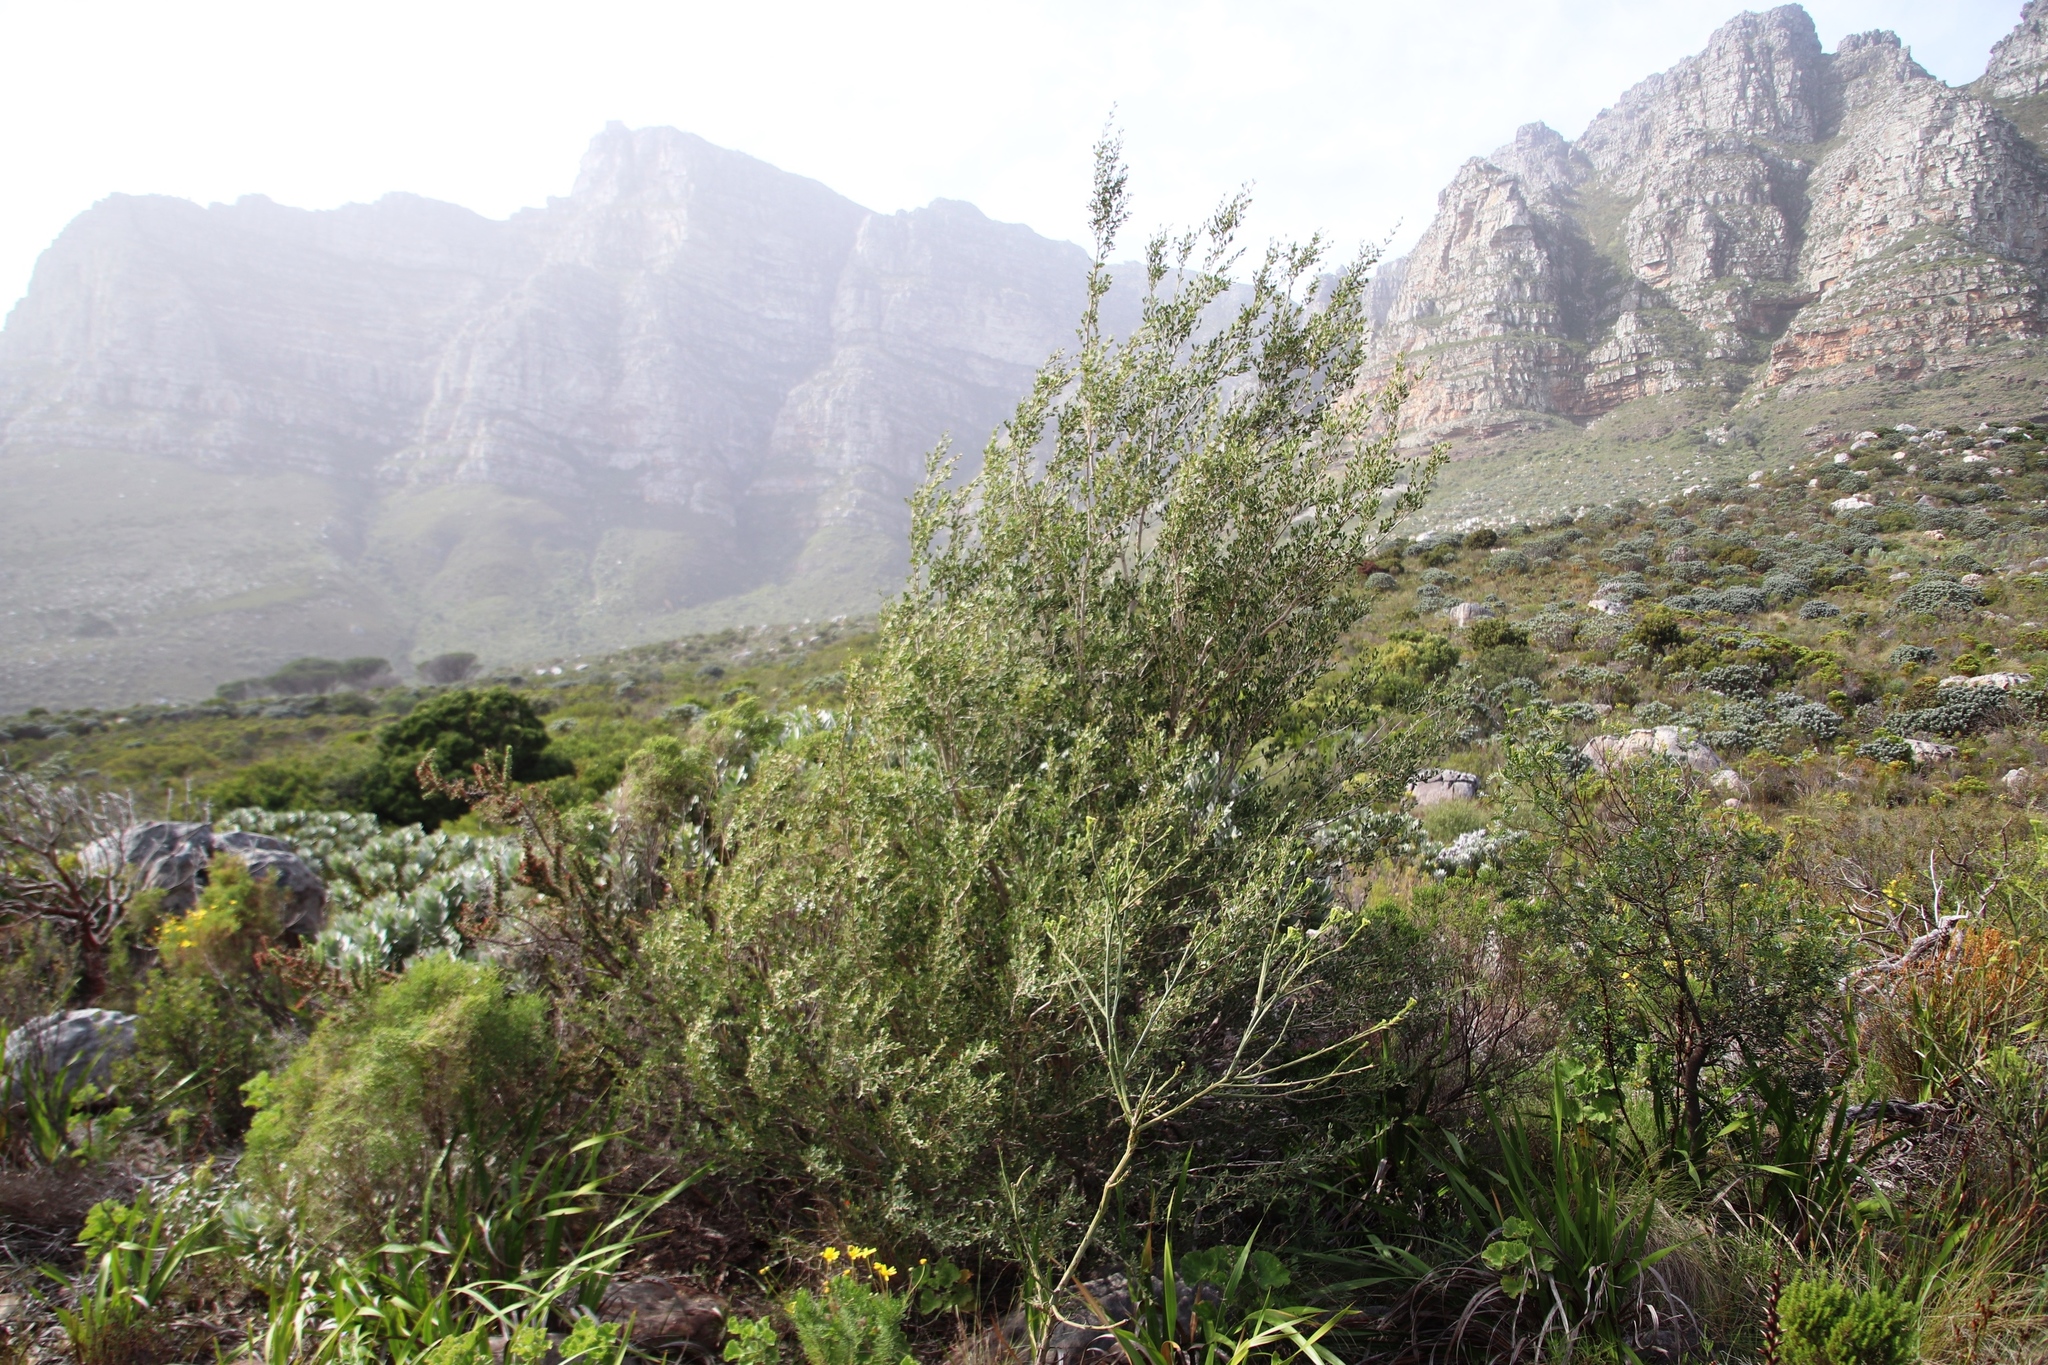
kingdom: Plantae
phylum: Tracheophyta
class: Magnoliopsida
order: Myrtales
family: Myrtaceae
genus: Leptospermum
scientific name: Leptospermum laevigatum
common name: Australian teatree
